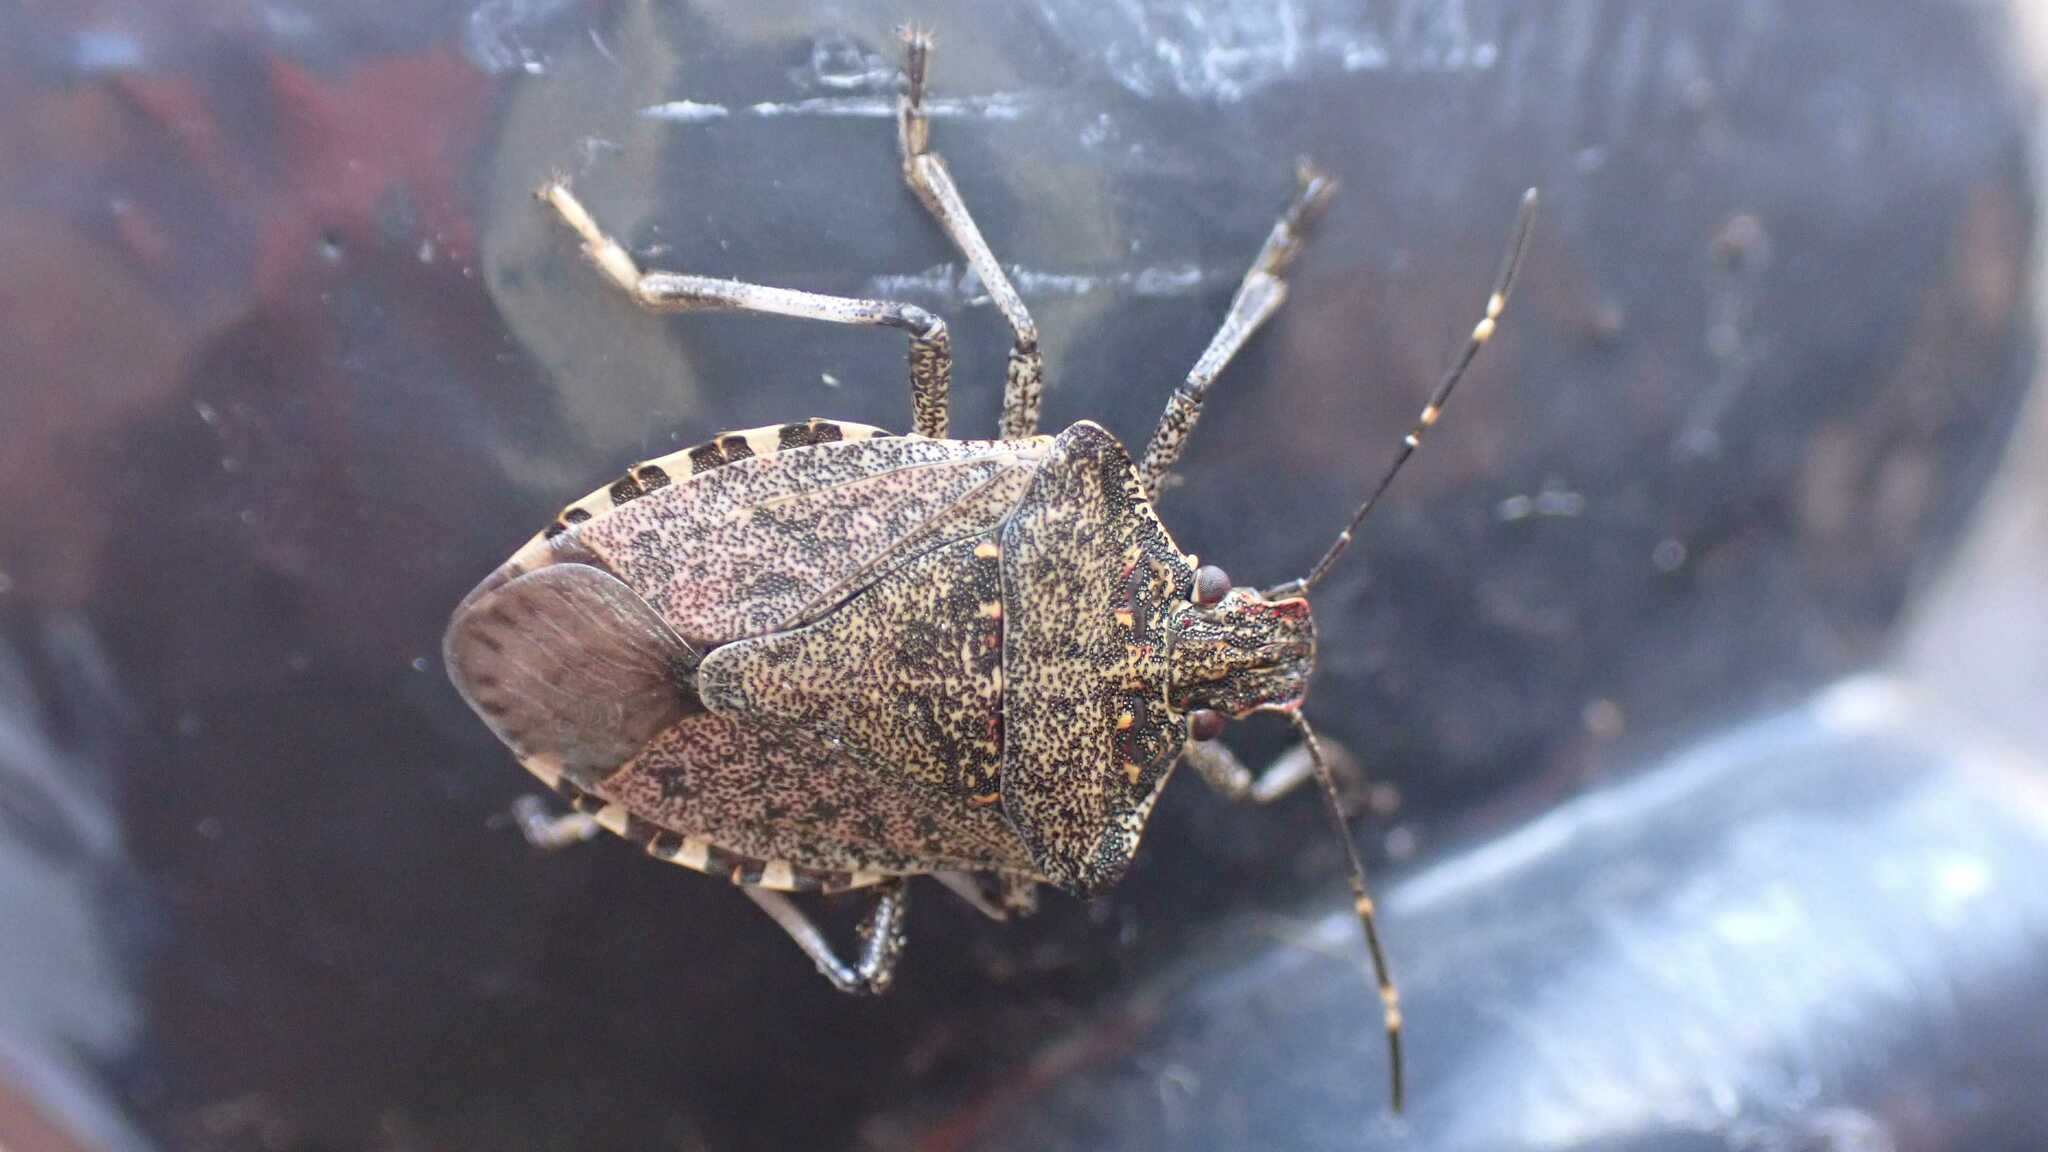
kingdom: Animalia
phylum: Arthropoda
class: Insecta
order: Hemiptera
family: Pentatomidae
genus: Halyomorpha
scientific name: Halyomorpha halys
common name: Brown marmorated stink bug
